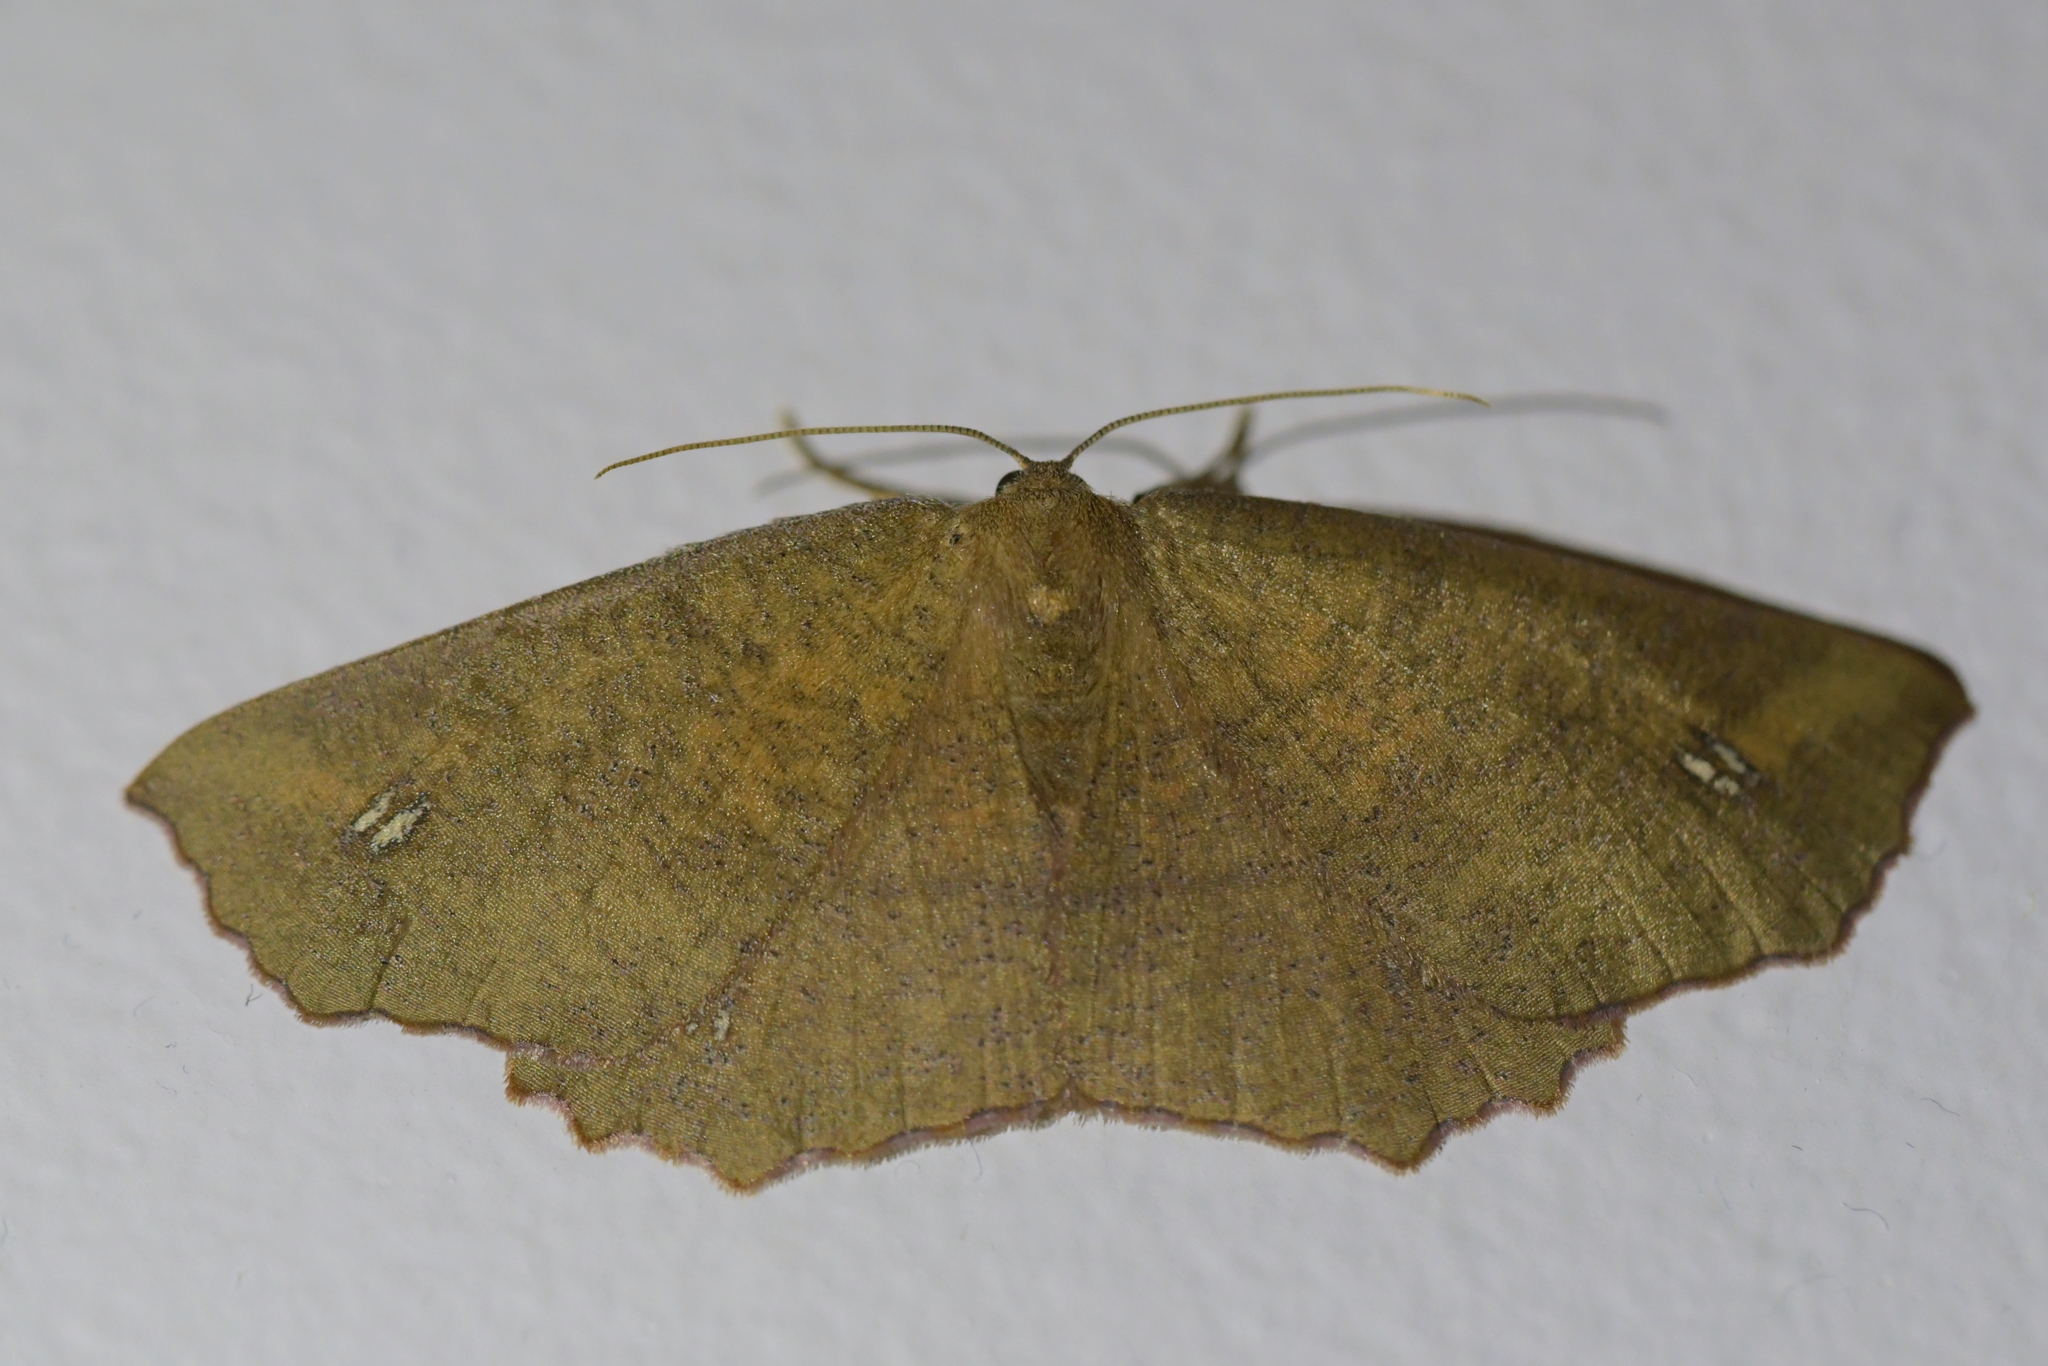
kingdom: Animalia
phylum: Arthropoda
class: Insecta
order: Lepidoptera
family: Geometridae
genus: Xyridacma
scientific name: Xyridacma ustaria
